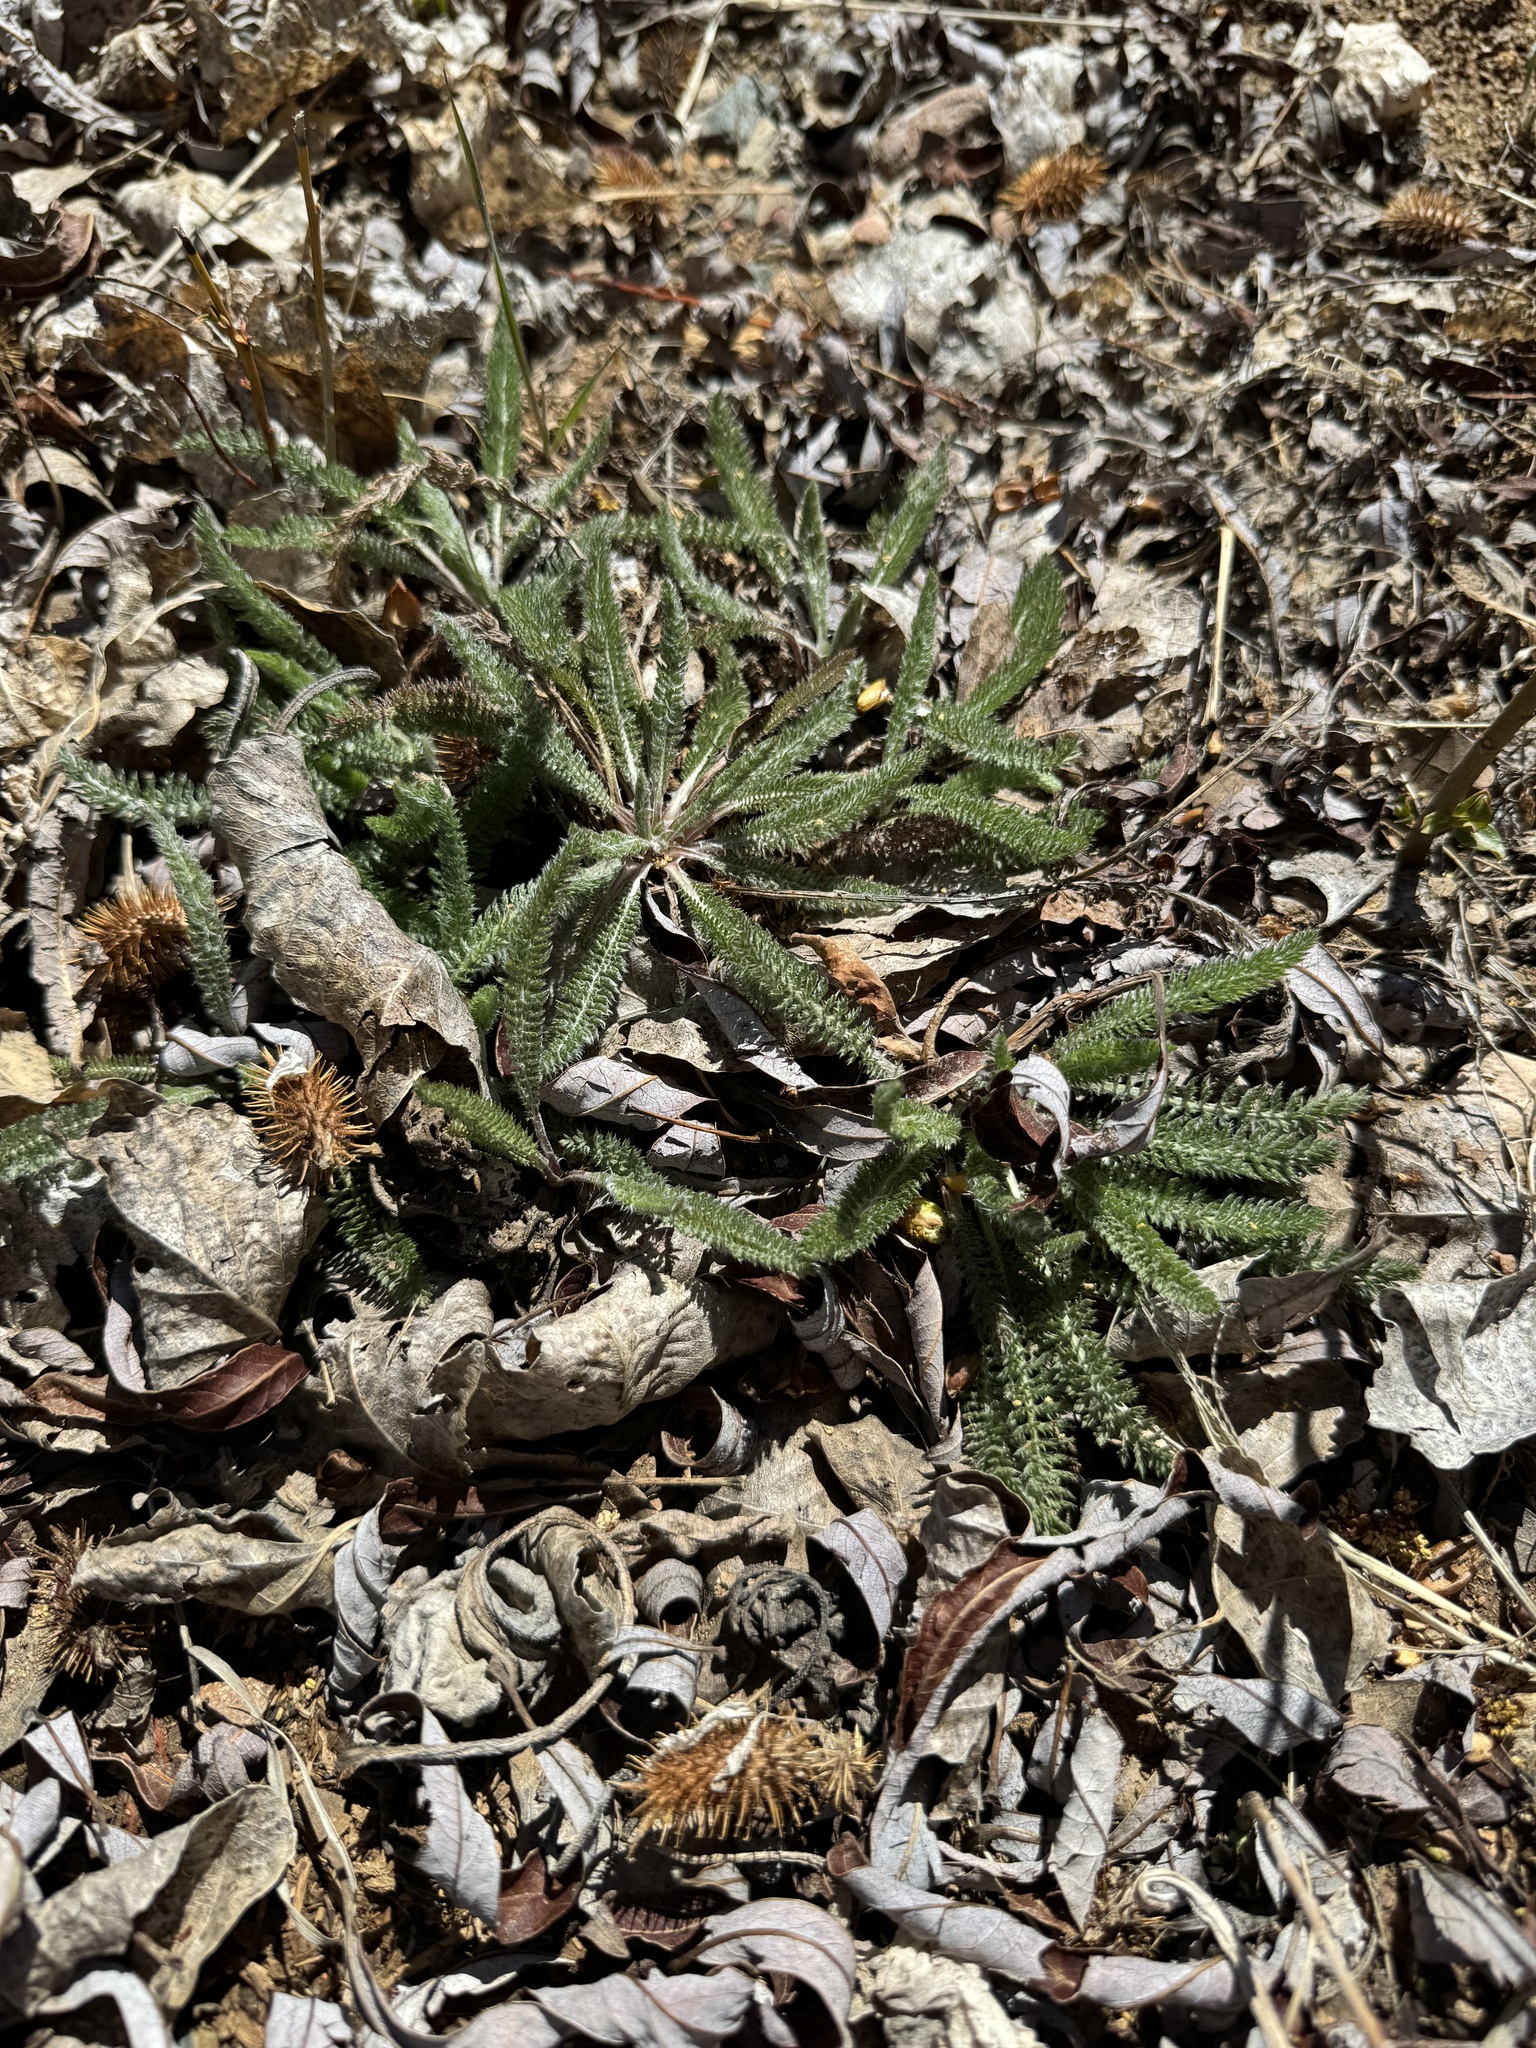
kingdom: Plantae
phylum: Tracheophyta
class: Magnoliopsida
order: Asterales
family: Asteraceae
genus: Achillea
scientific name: Achillea millefolium
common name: Yarrow
